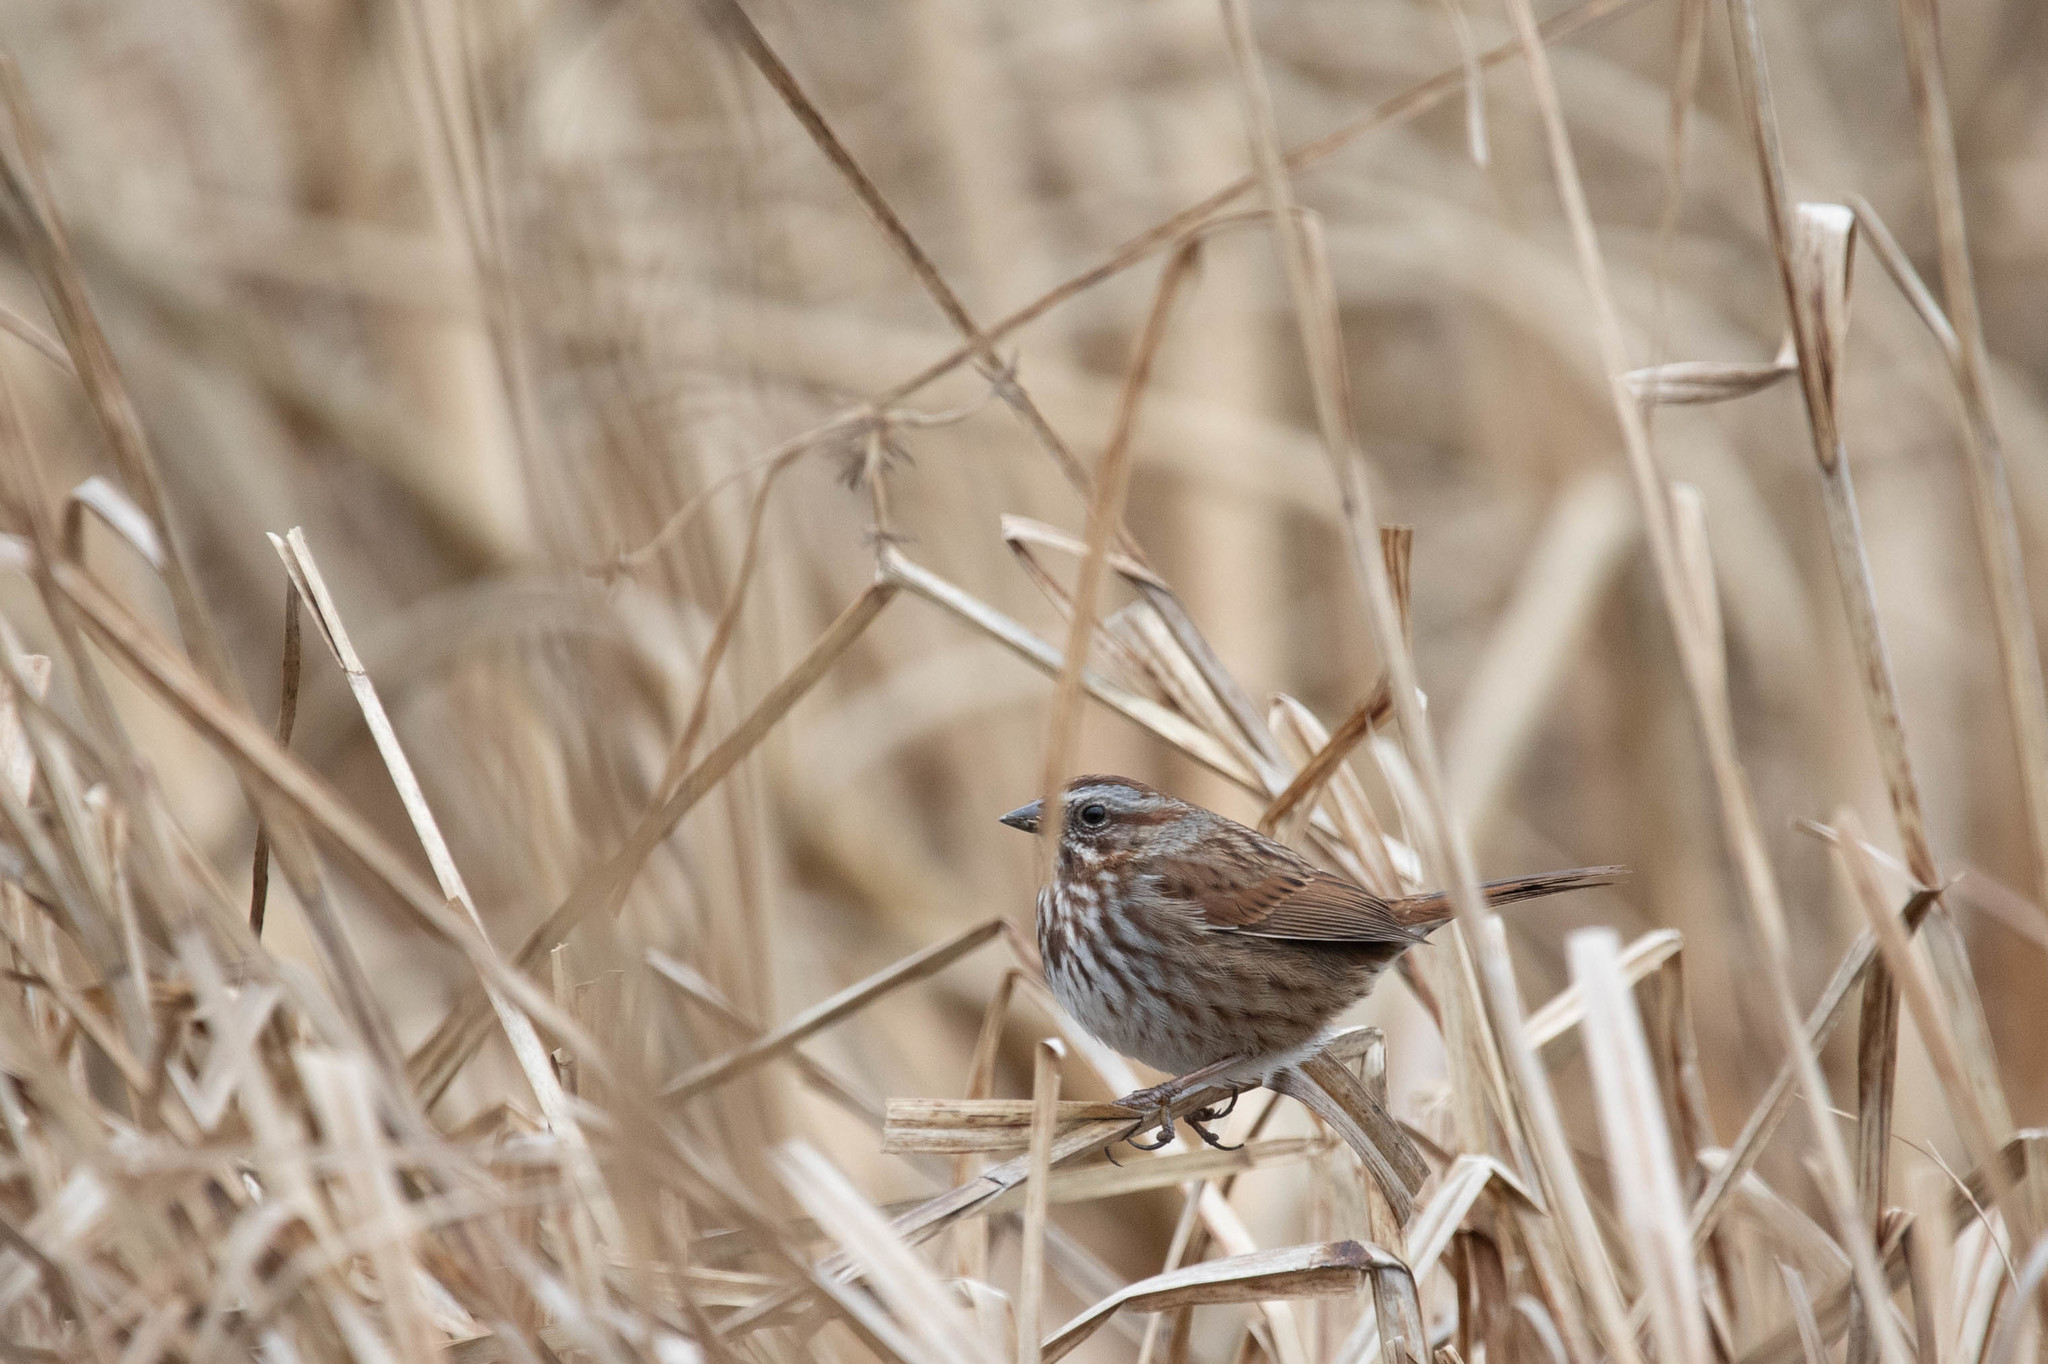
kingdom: Animalia
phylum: Chordata
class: Aves
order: Passeriformes
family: Passerellidae
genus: Melospiza
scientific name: Melospiza melodia
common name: Song sparrow
